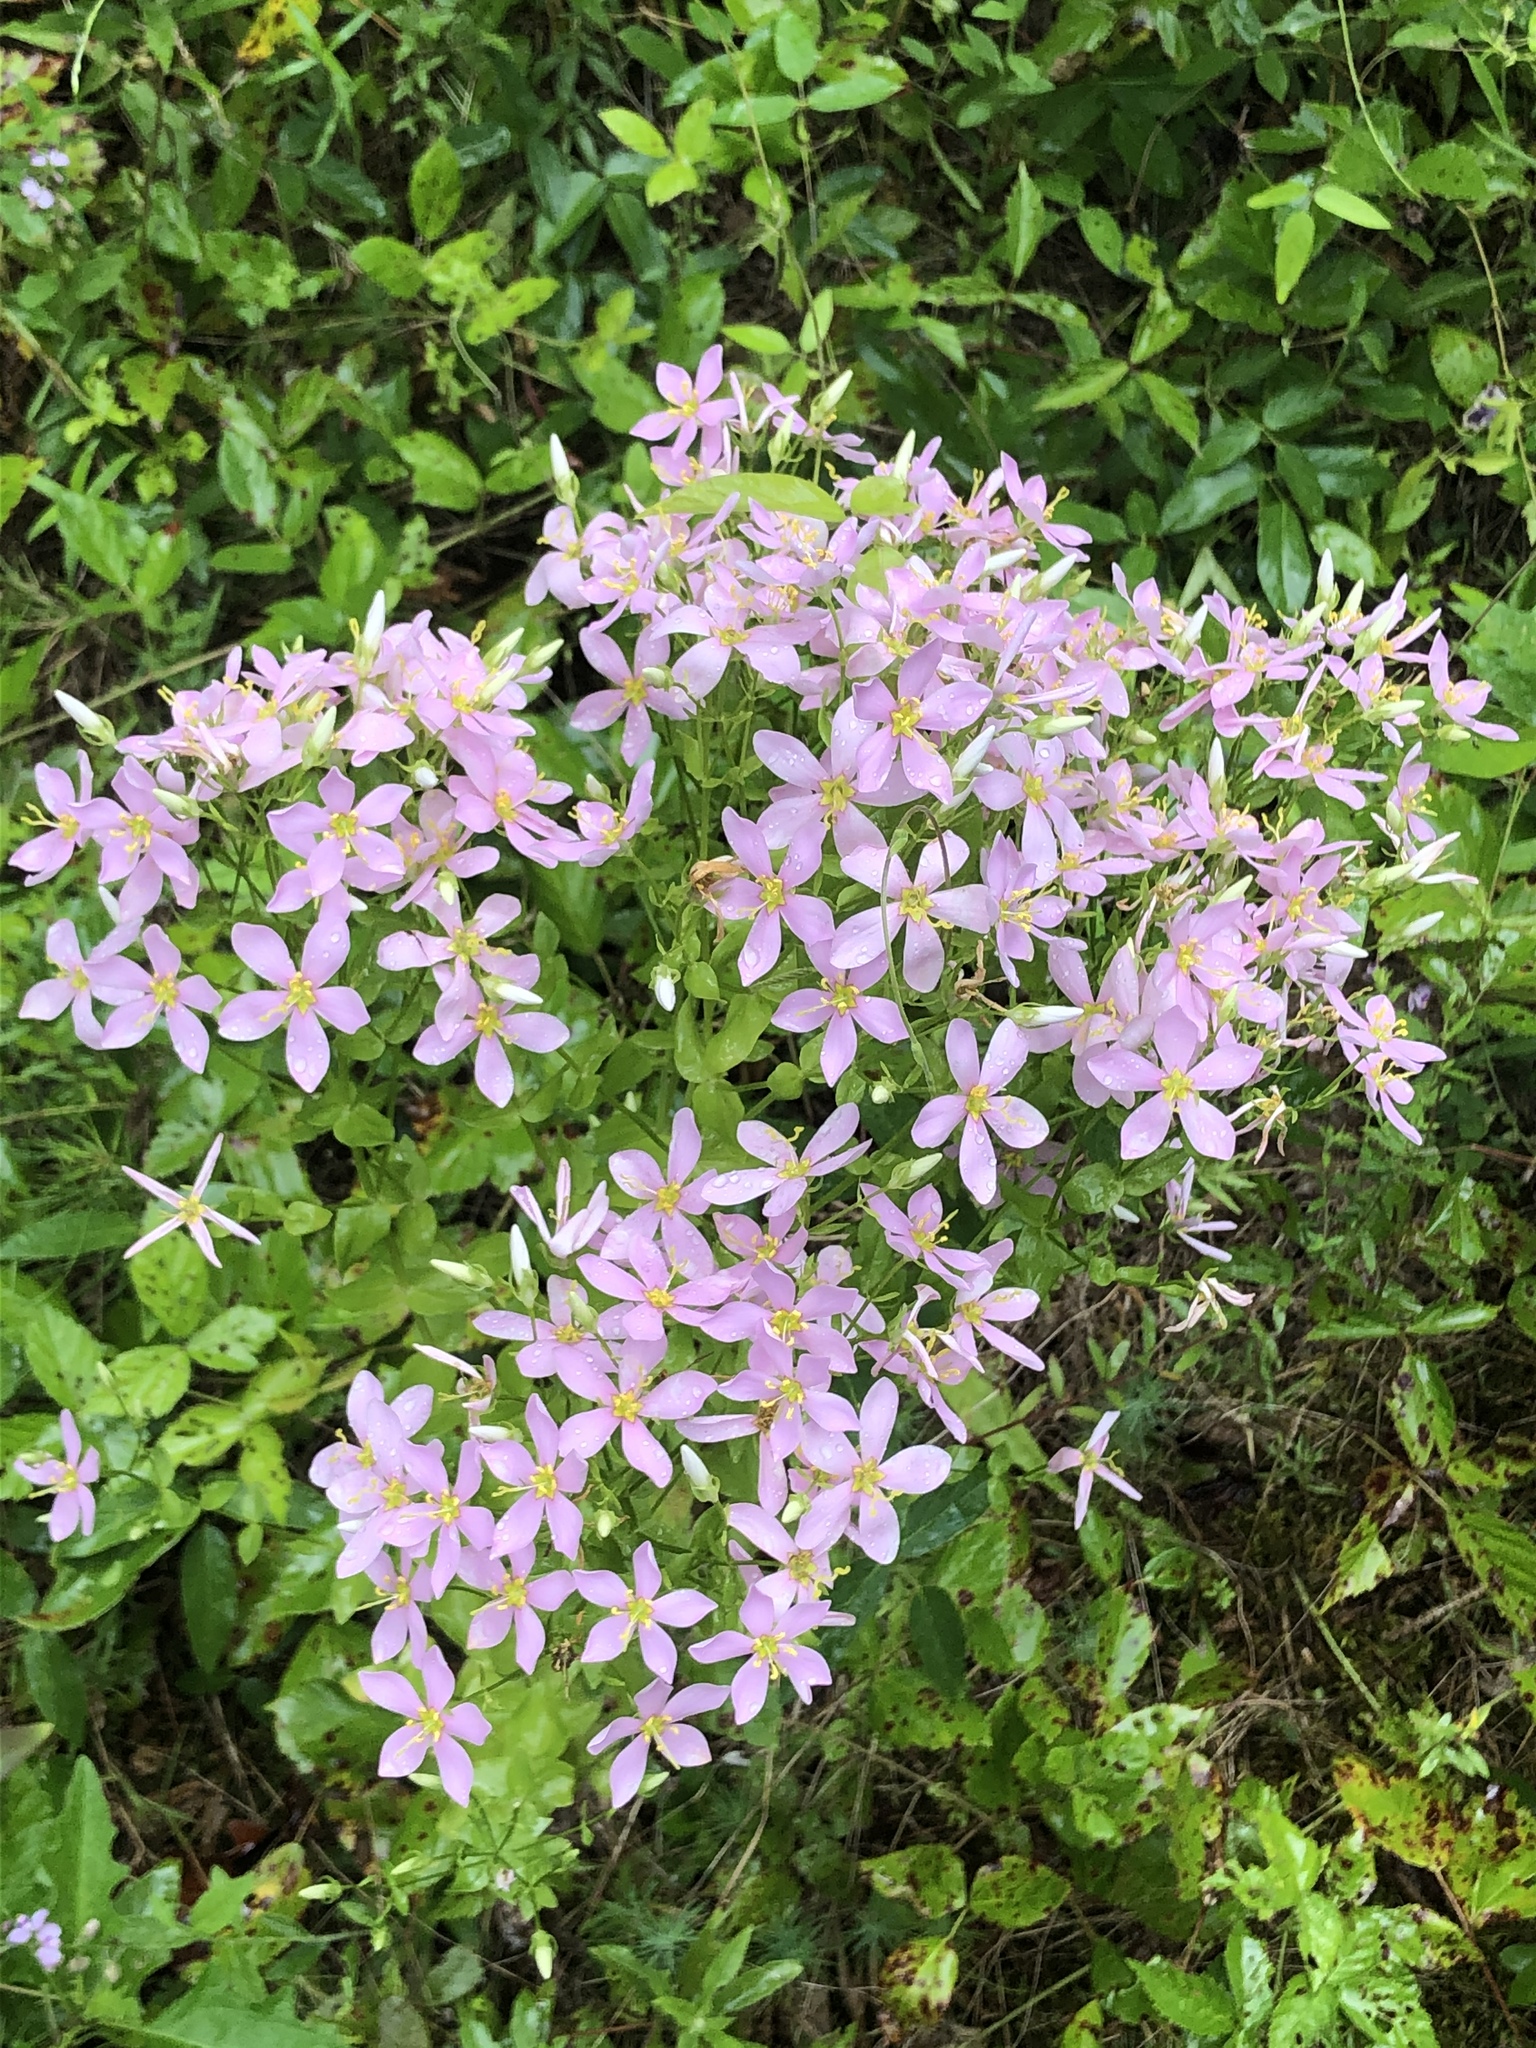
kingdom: Plantae
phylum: Tracheophyta
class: Magnoliopsida
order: Gentianales
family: Gentianaceae
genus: Sabatia
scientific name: Sabatia angularis
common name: Rose-pink
